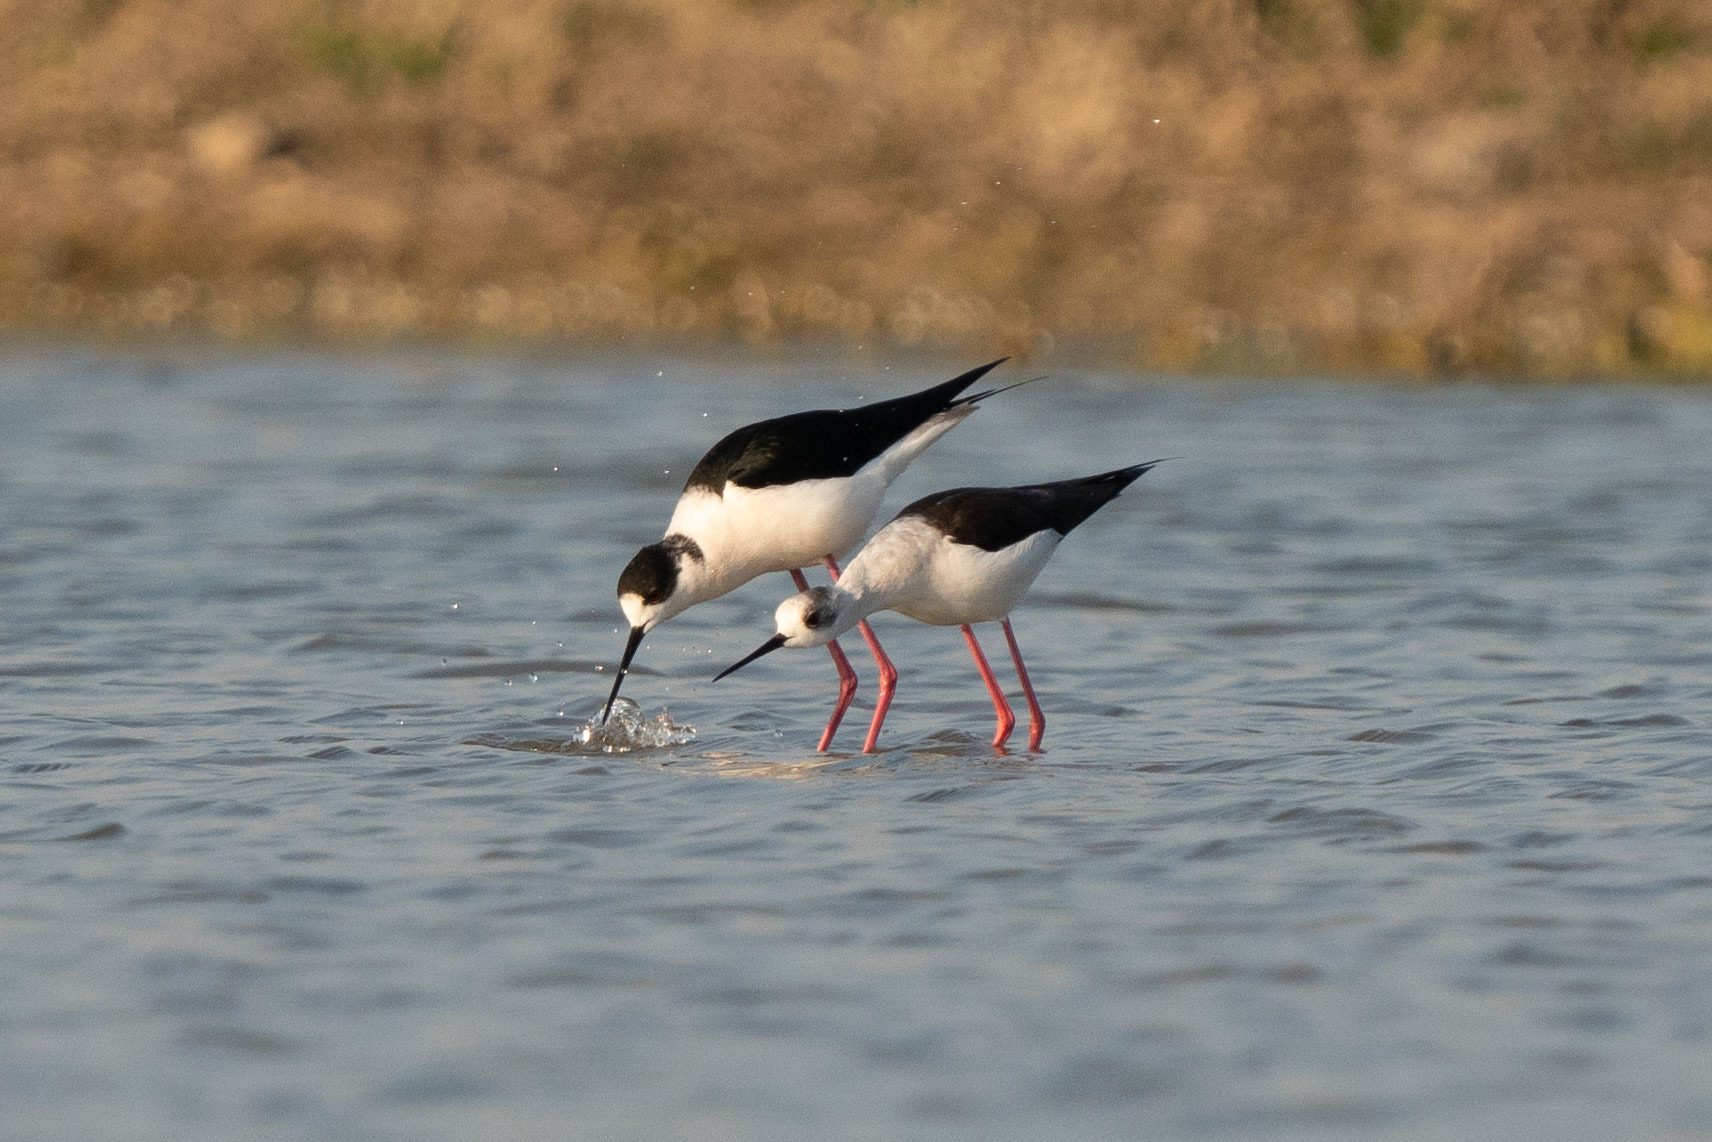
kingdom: Animalia
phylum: Chordata
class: Aves
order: Charadriiformes
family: Recurvirostridae
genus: Himantopus
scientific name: Himantopus himantopus
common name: Black-winged stilt
